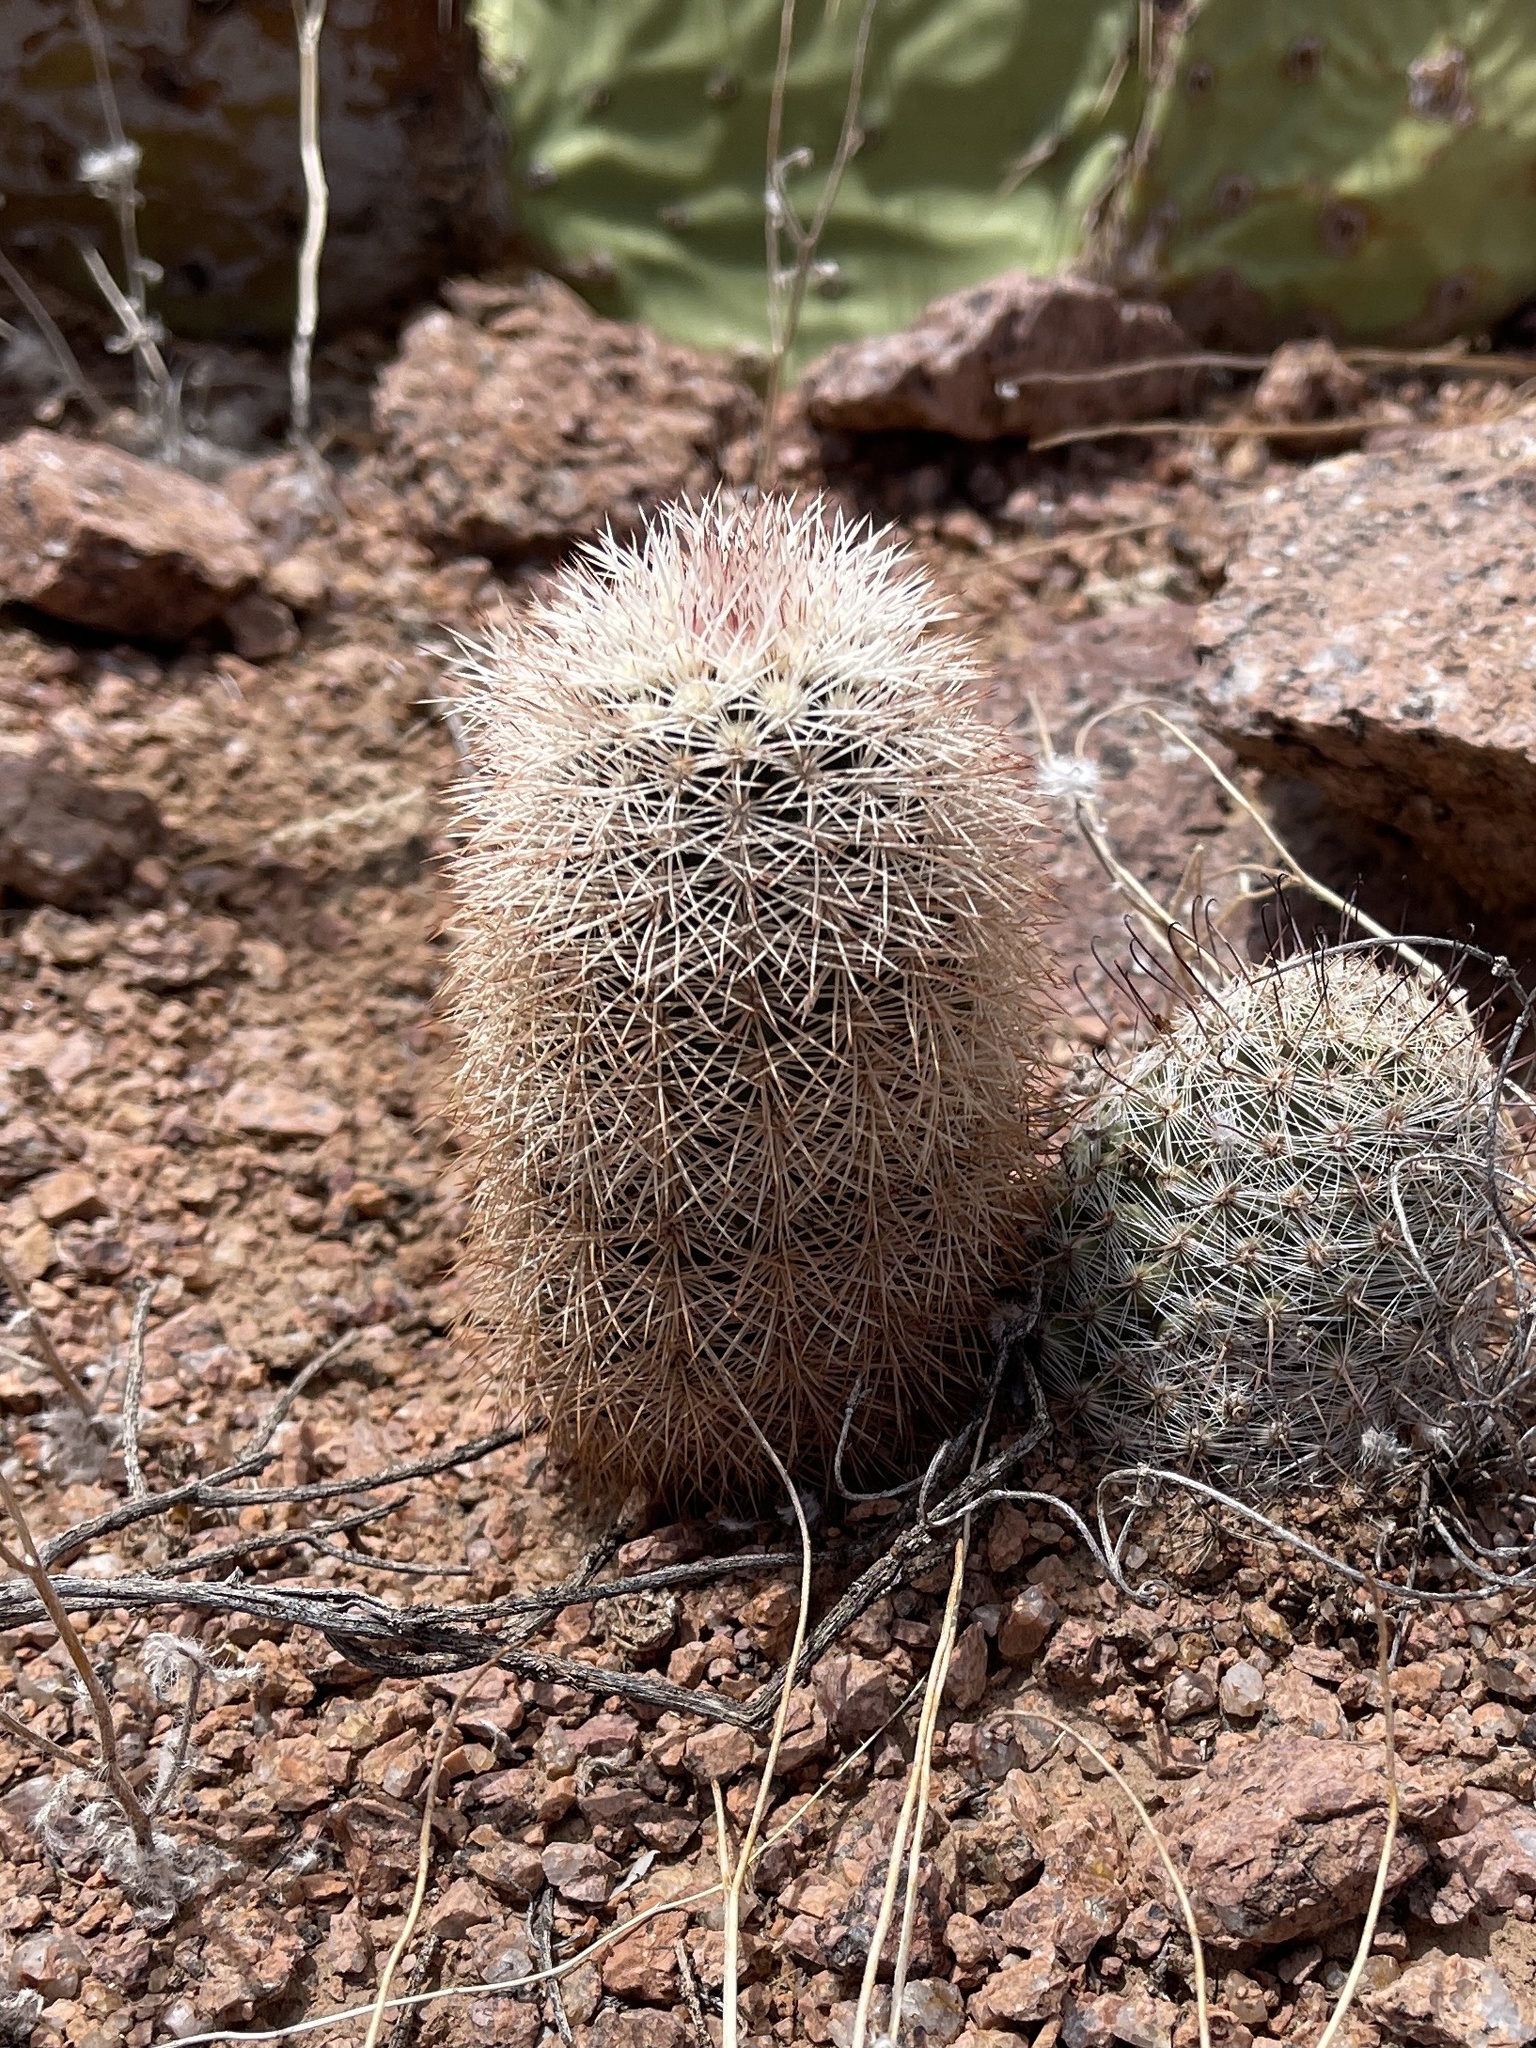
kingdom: Plantae
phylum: Tracheophyta
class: Magnoliopsida
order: Caryophyllales
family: Cactaceae
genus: Echinocereus
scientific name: Echinocereus dasyacanthus
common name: Spiny hedgehog cactus
